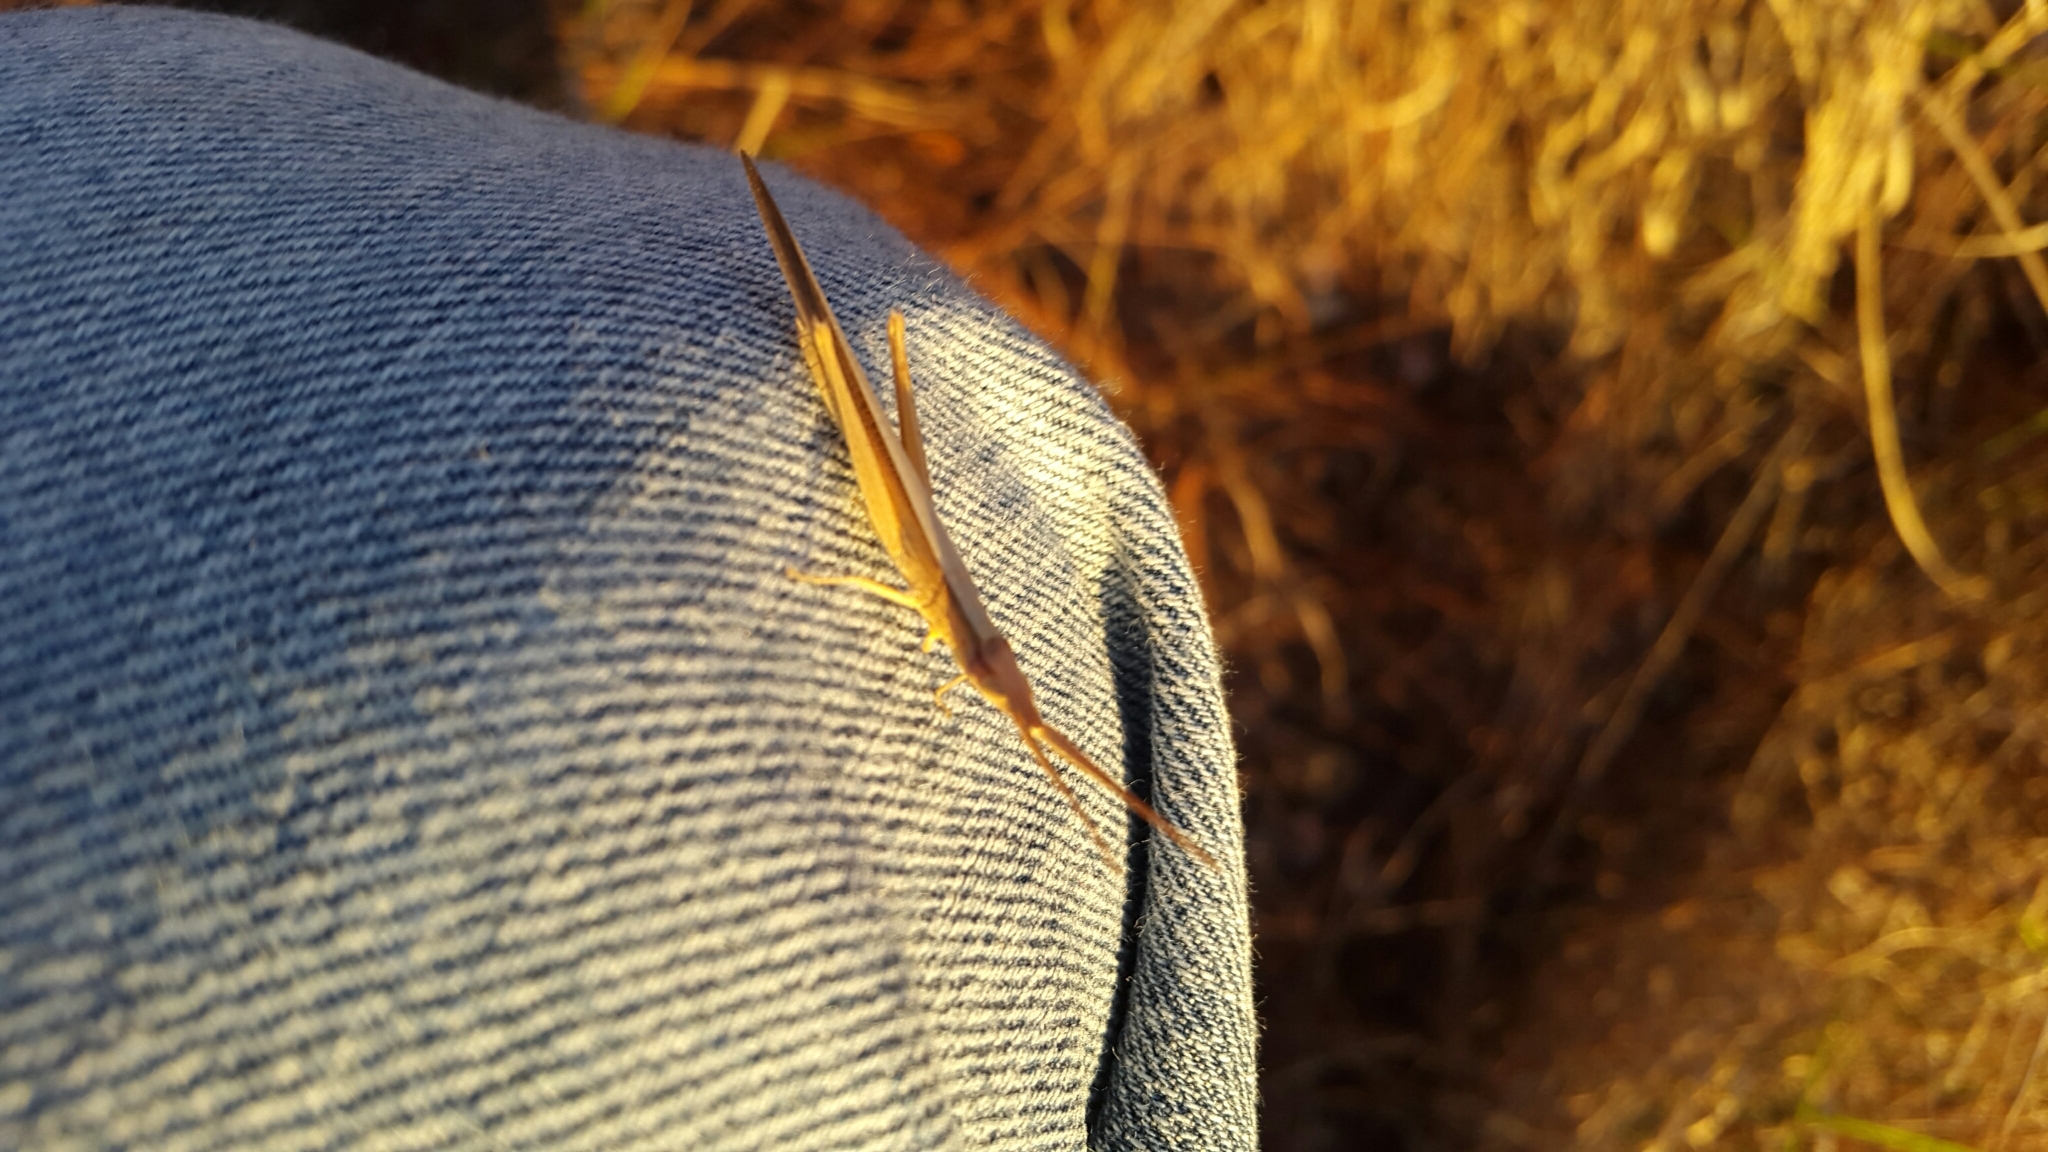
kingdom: Animalia
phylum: Arthropoda
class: Insecta
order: Orthoptera
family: Acrididae
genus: Achurum
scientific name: Achurum sumichrasti
